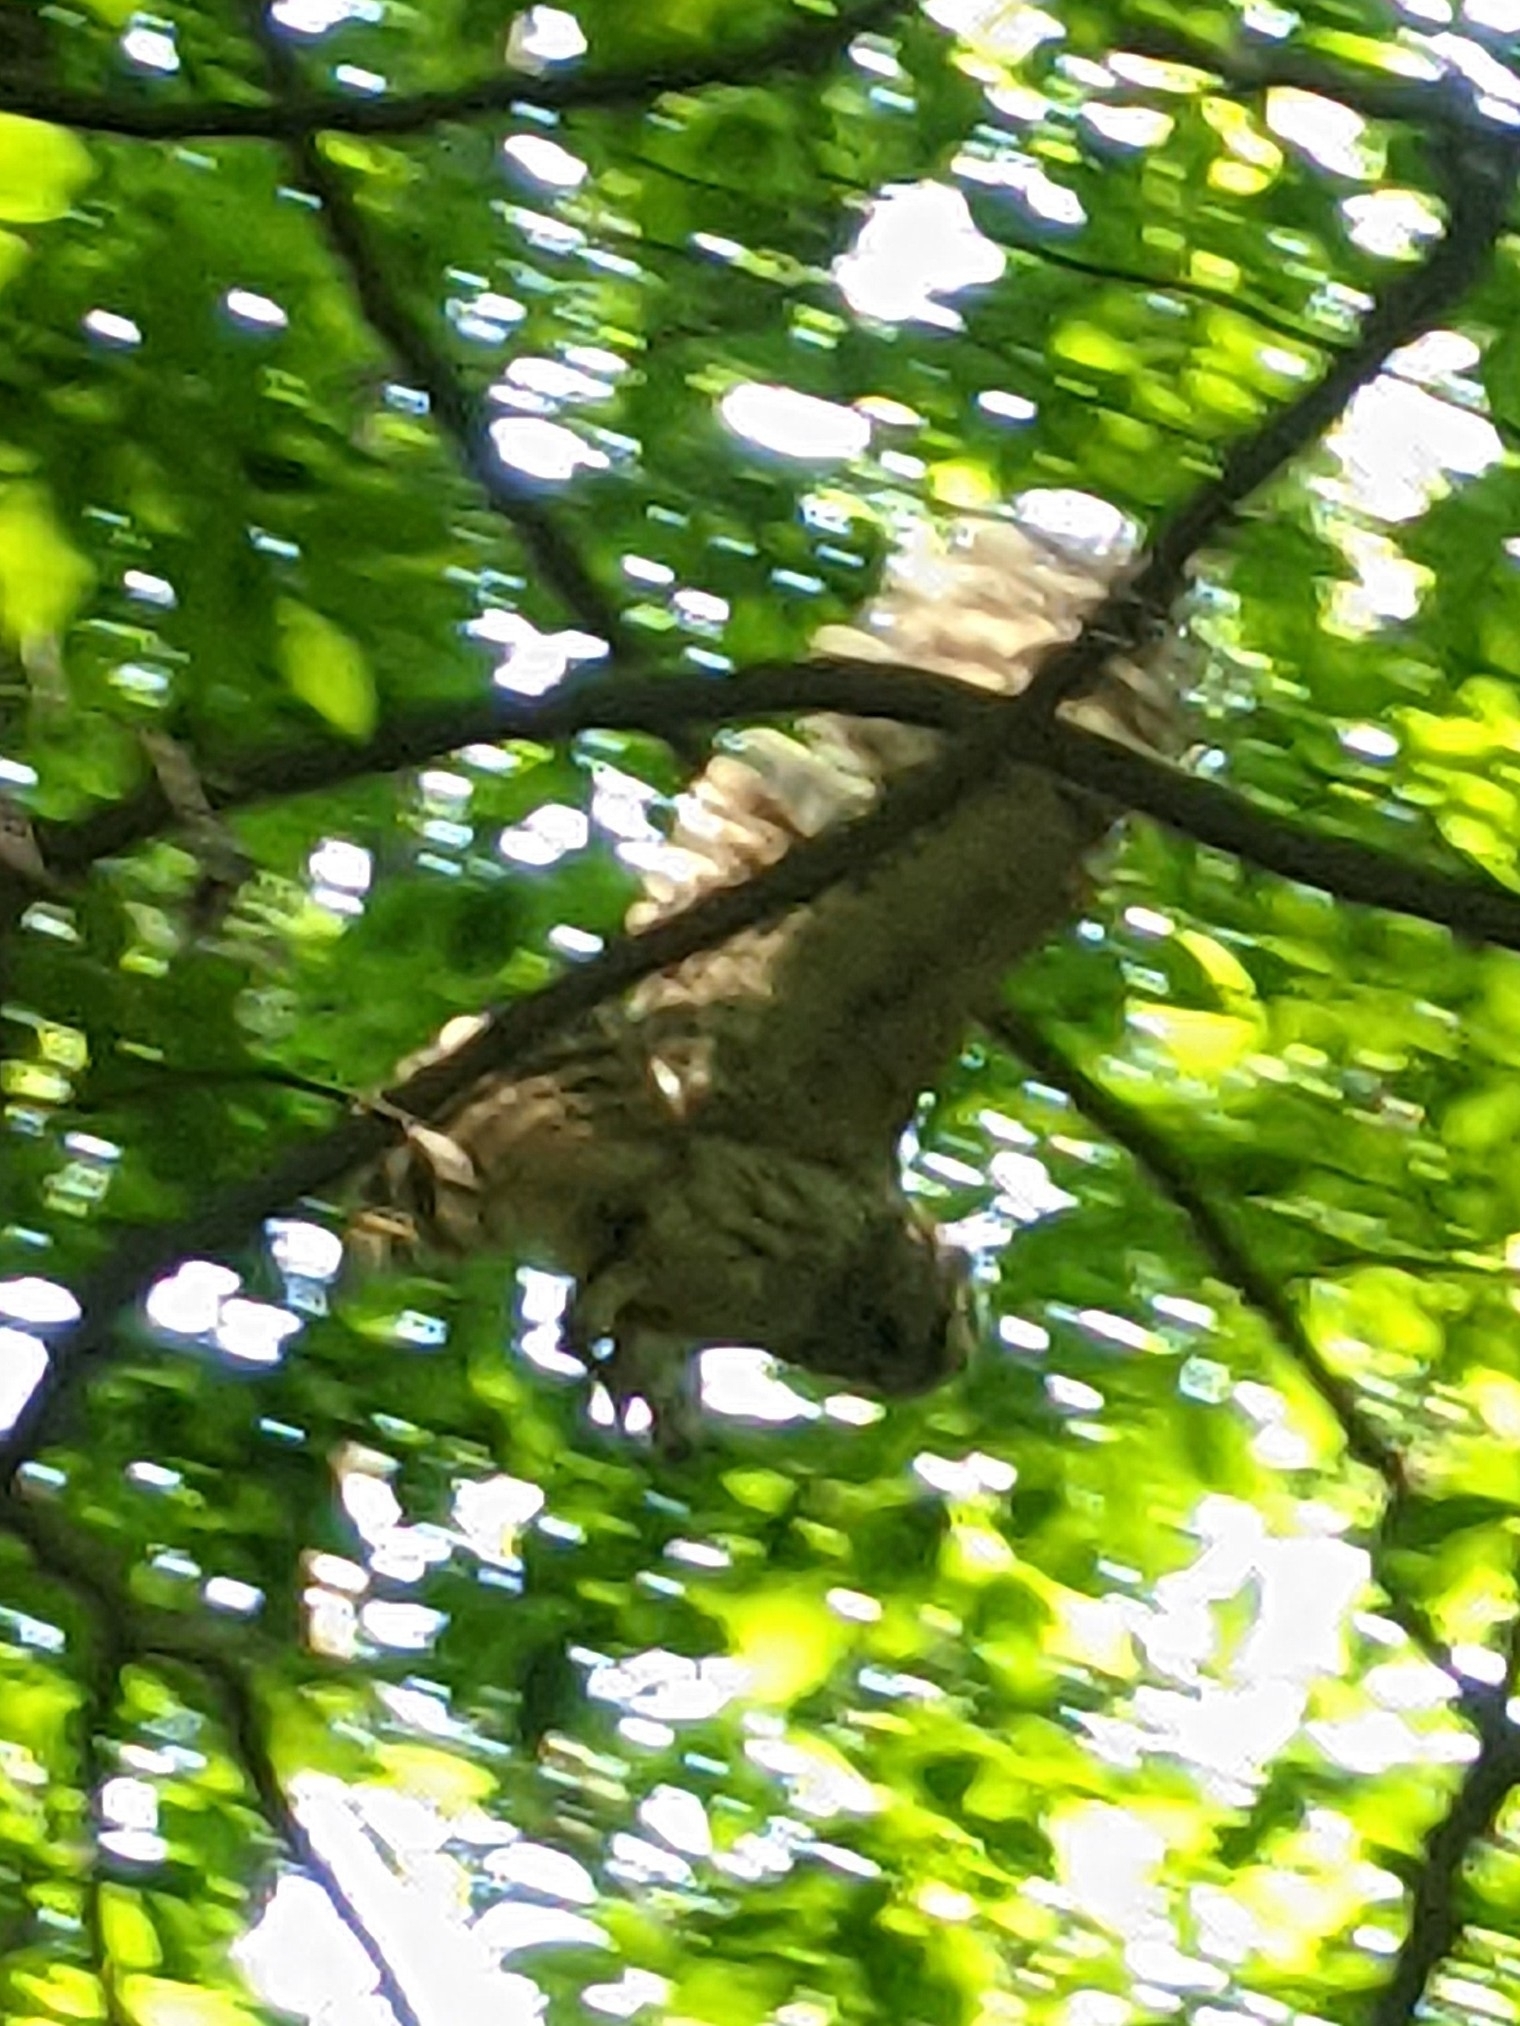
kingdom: Animalia
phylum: Chordata
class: Aves
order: Strigiformes
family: Strigidae
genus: Strix
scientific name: Strix varia
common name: Barred owl
